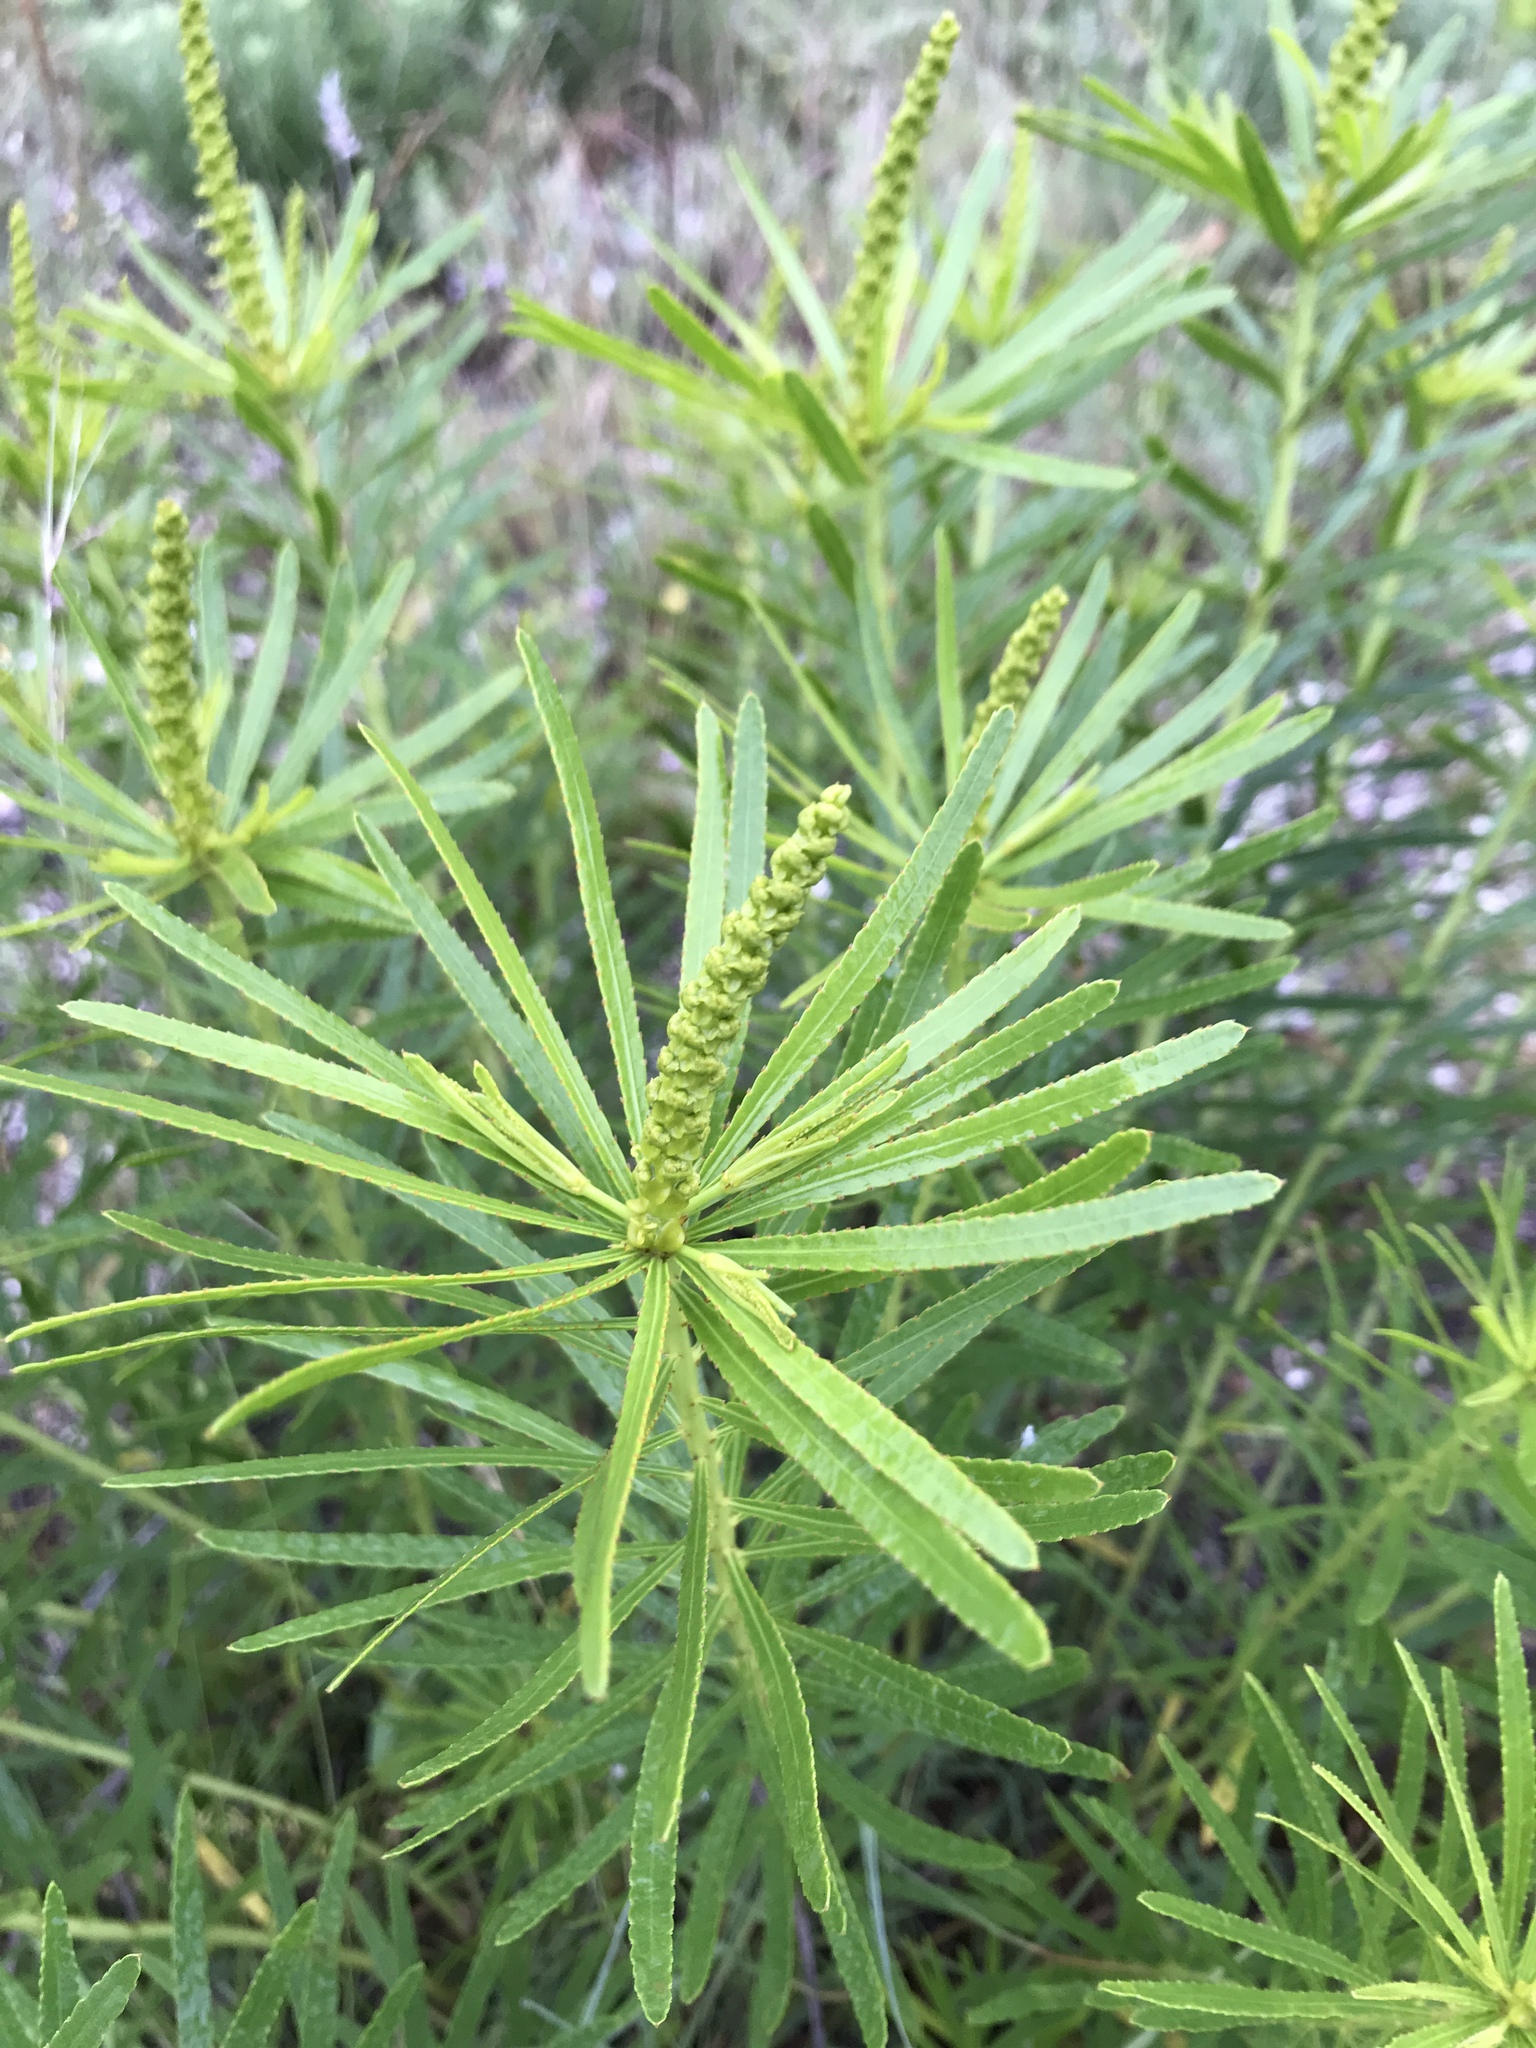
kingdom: Plantae
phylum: Tracheophyta
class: Magnoliopsida
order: Malpighiales
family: Euphorbiaceae
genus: Stillingia
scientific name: Stillingia texana
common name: Texas stillingia
